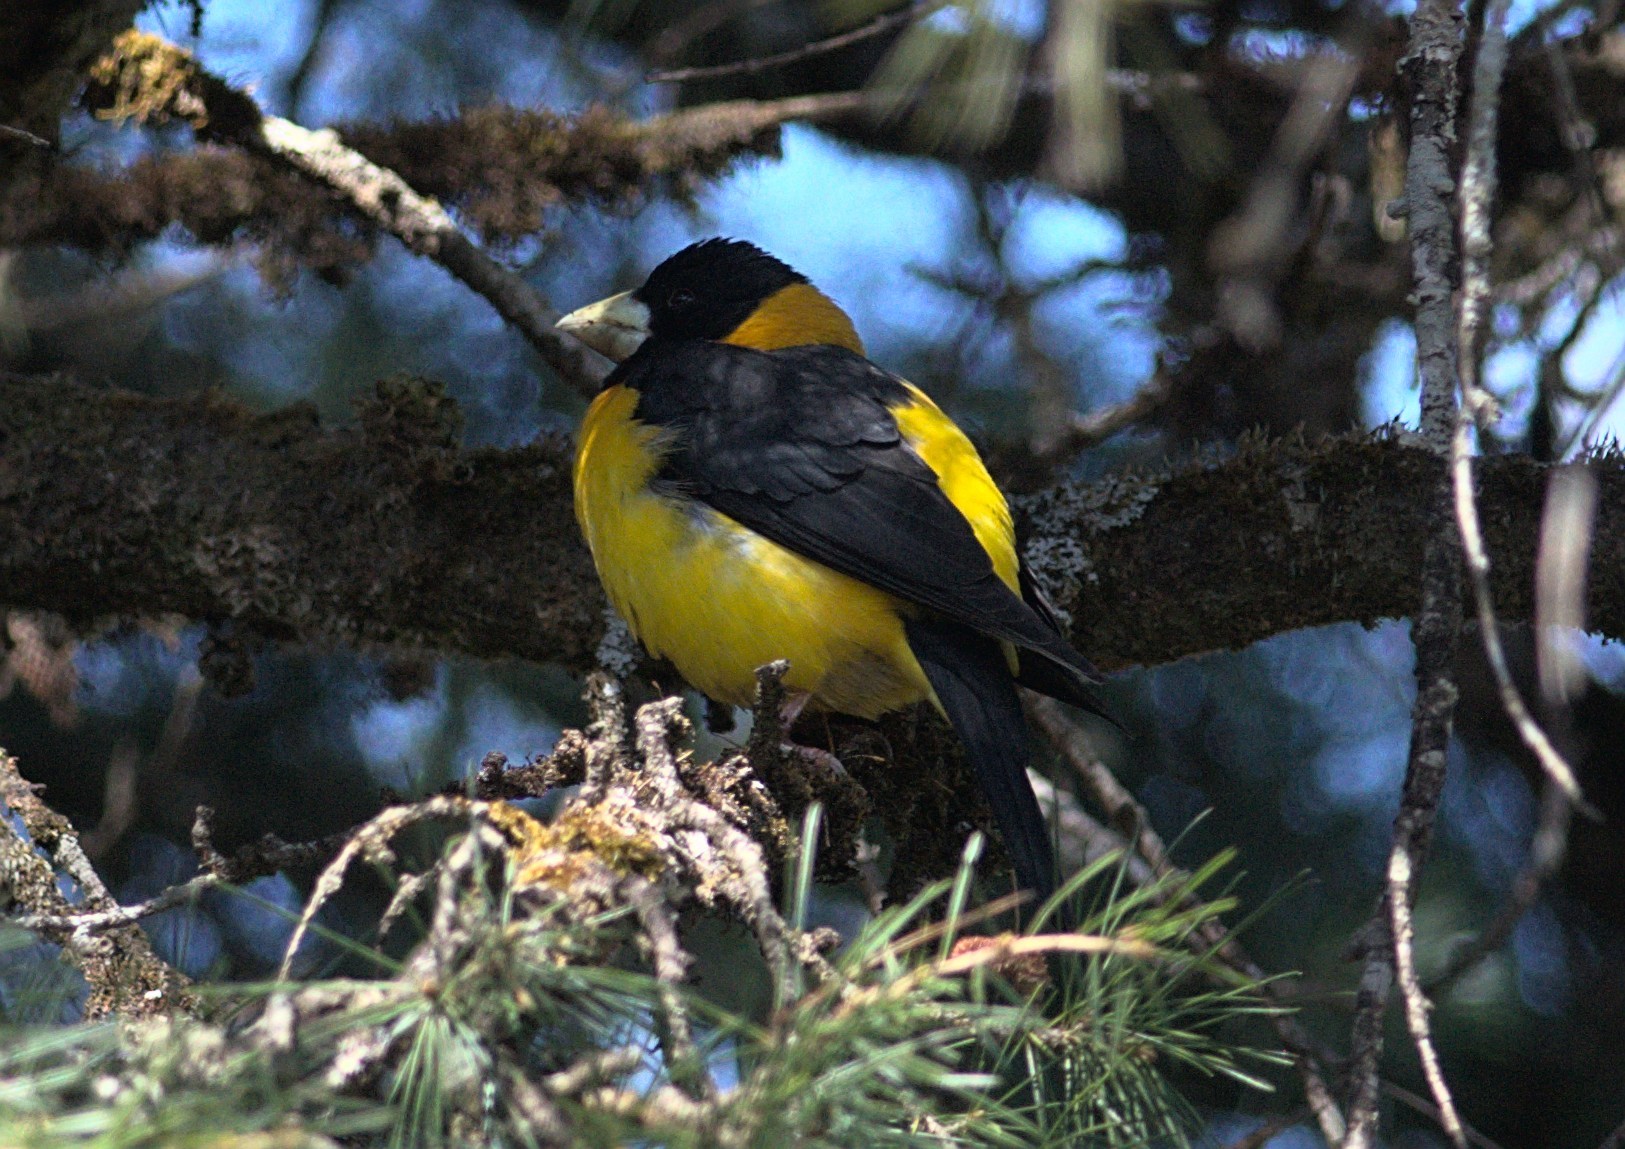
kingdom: Animalia
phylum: Chordata
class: Aves
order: Passeriformes
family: Fringillidae
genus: Mycerobas
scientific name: Mycerobas affinis
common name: Collared grosbeak
